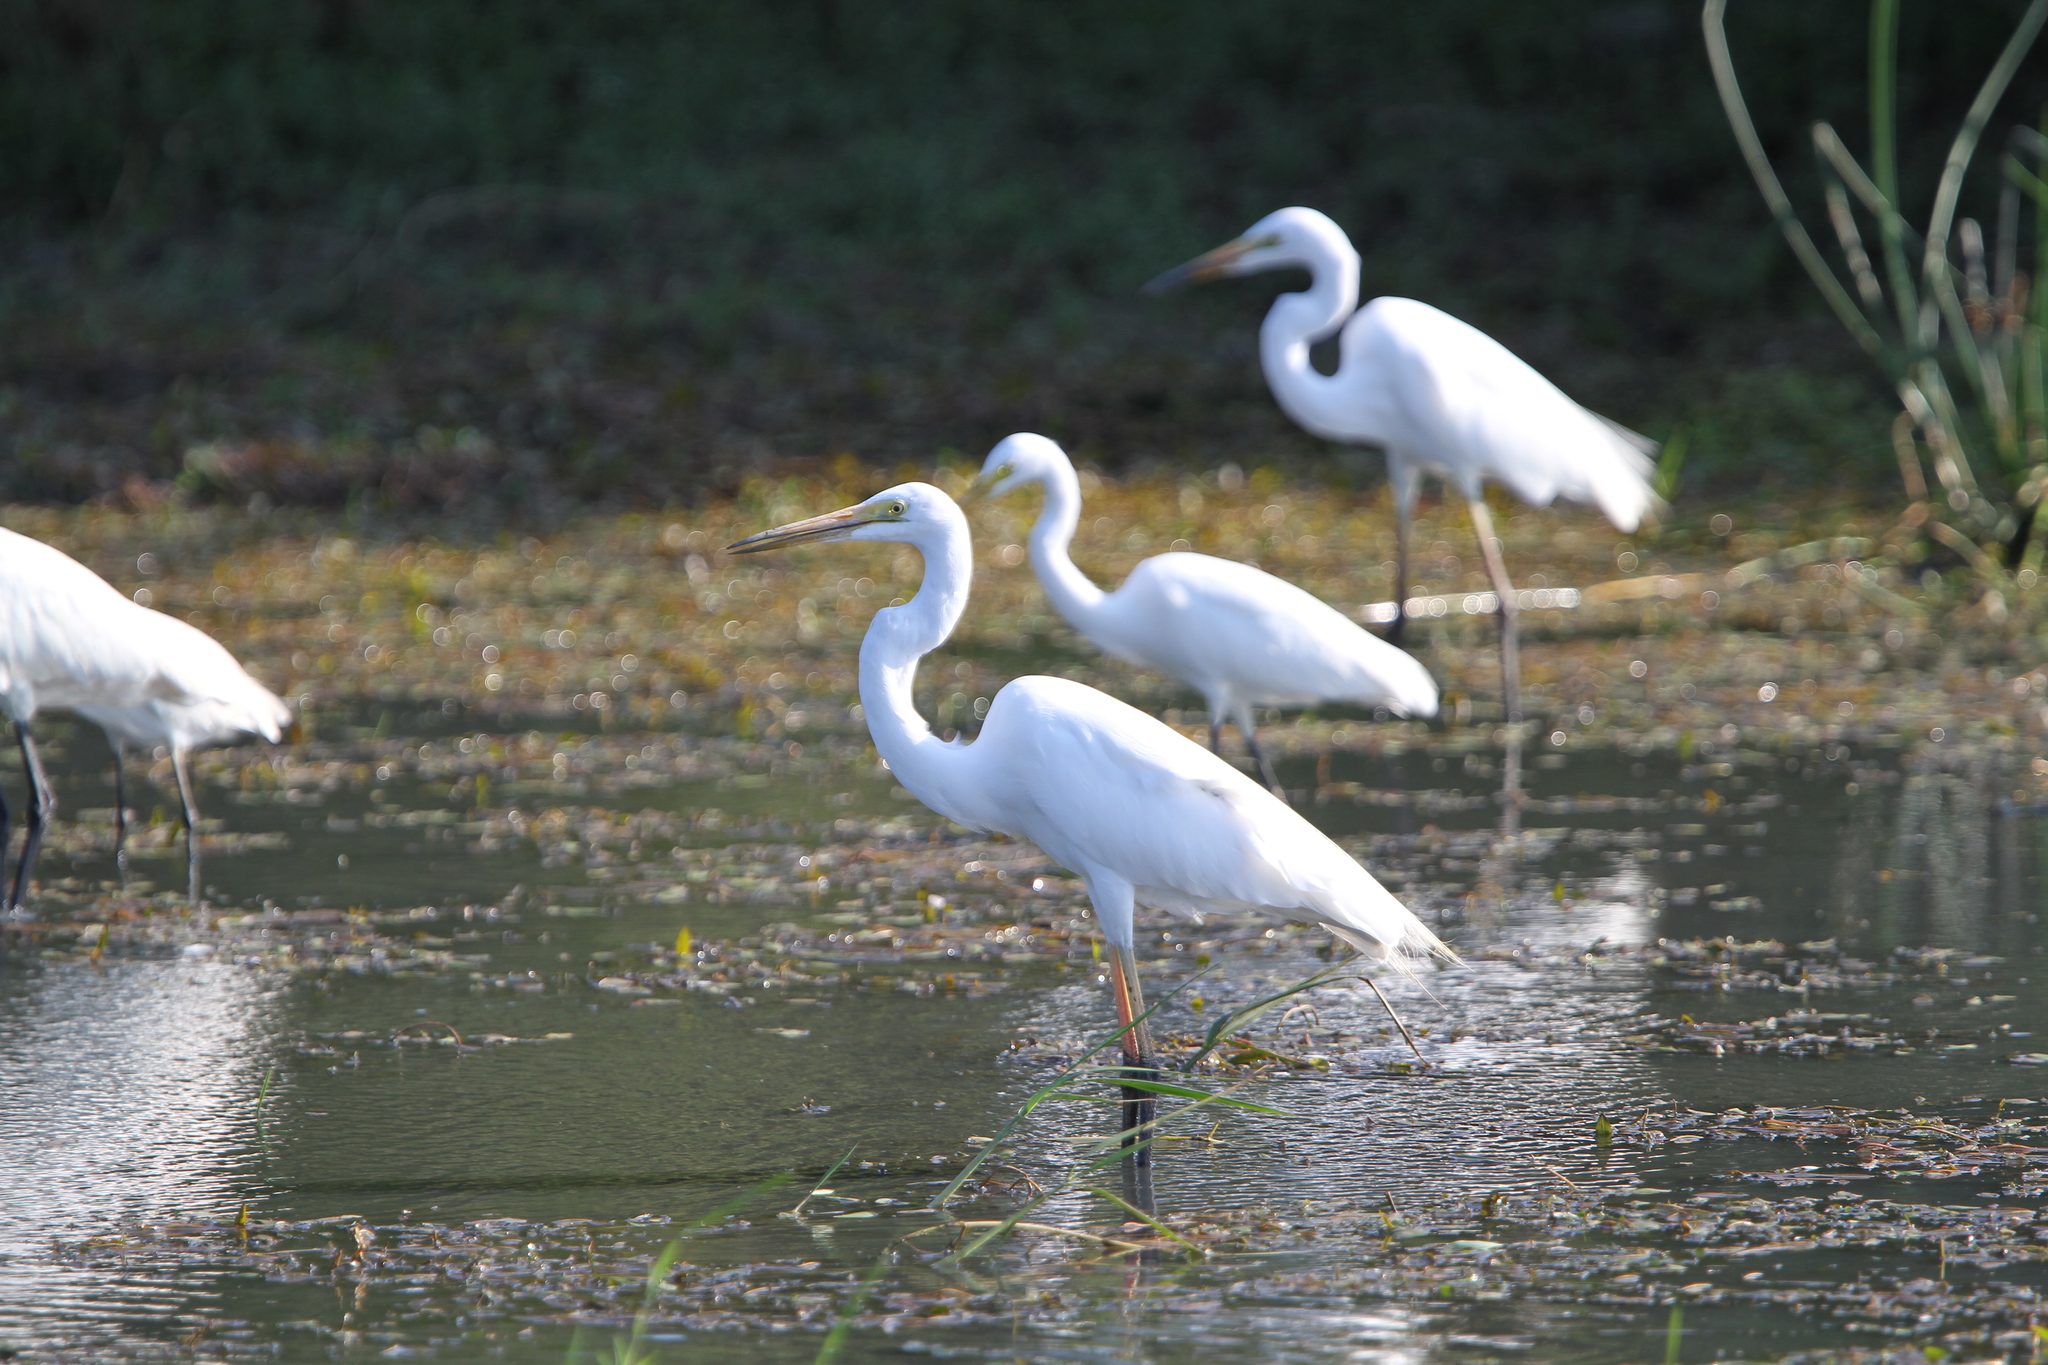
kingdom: Animalia
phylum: Chordata
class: Aves
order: Pelecaniformes
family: Ardeidae
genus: Ardea
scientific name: Ardea alba
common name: Great egret
